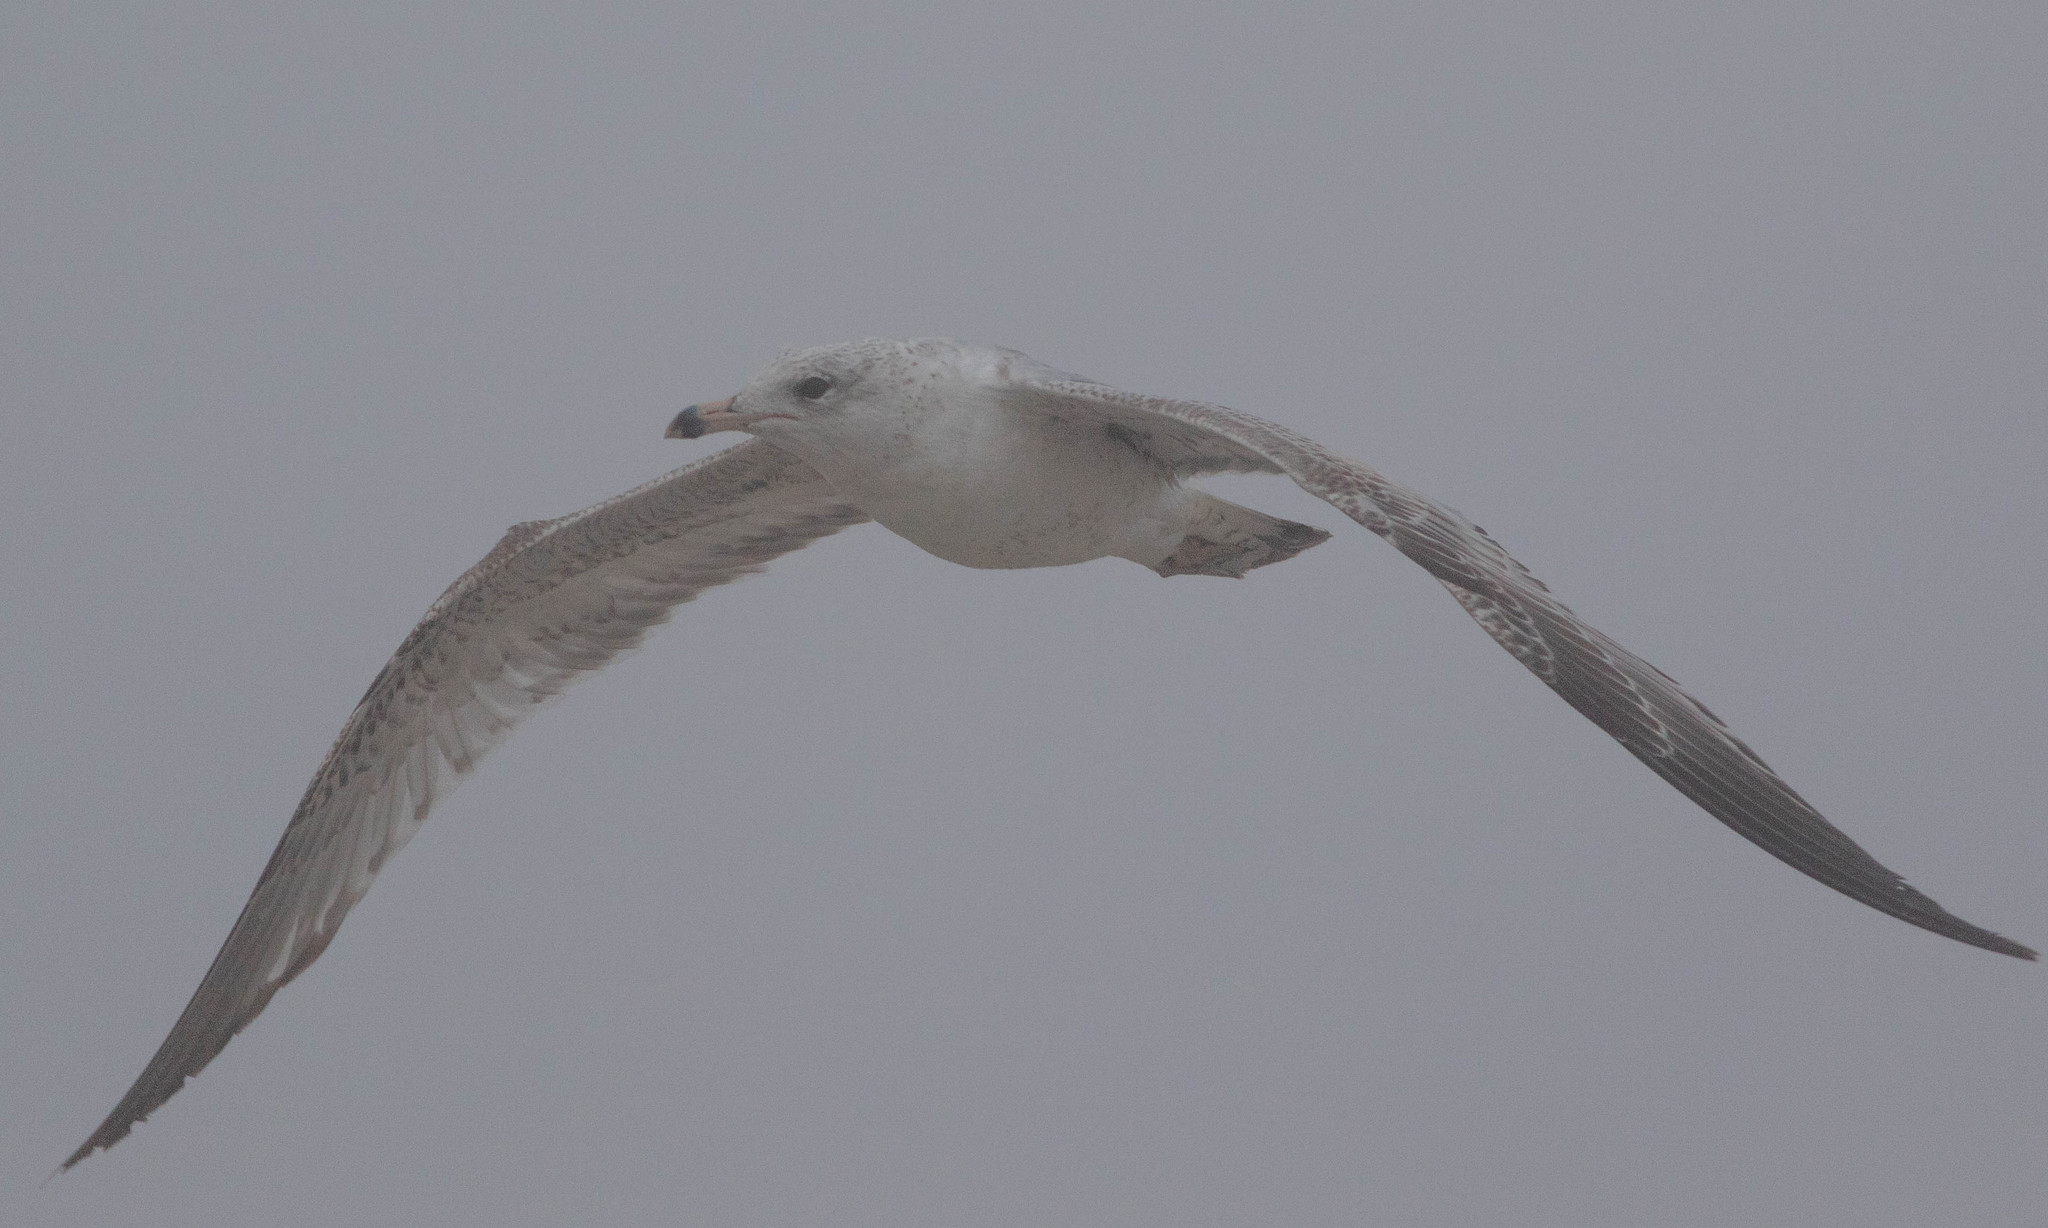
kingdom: Animalia
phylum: Chordata
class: Aves
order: Charadriiformes
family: Laridae
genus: Larus
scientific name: Larus delawarensis
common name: Ring-billed gull
